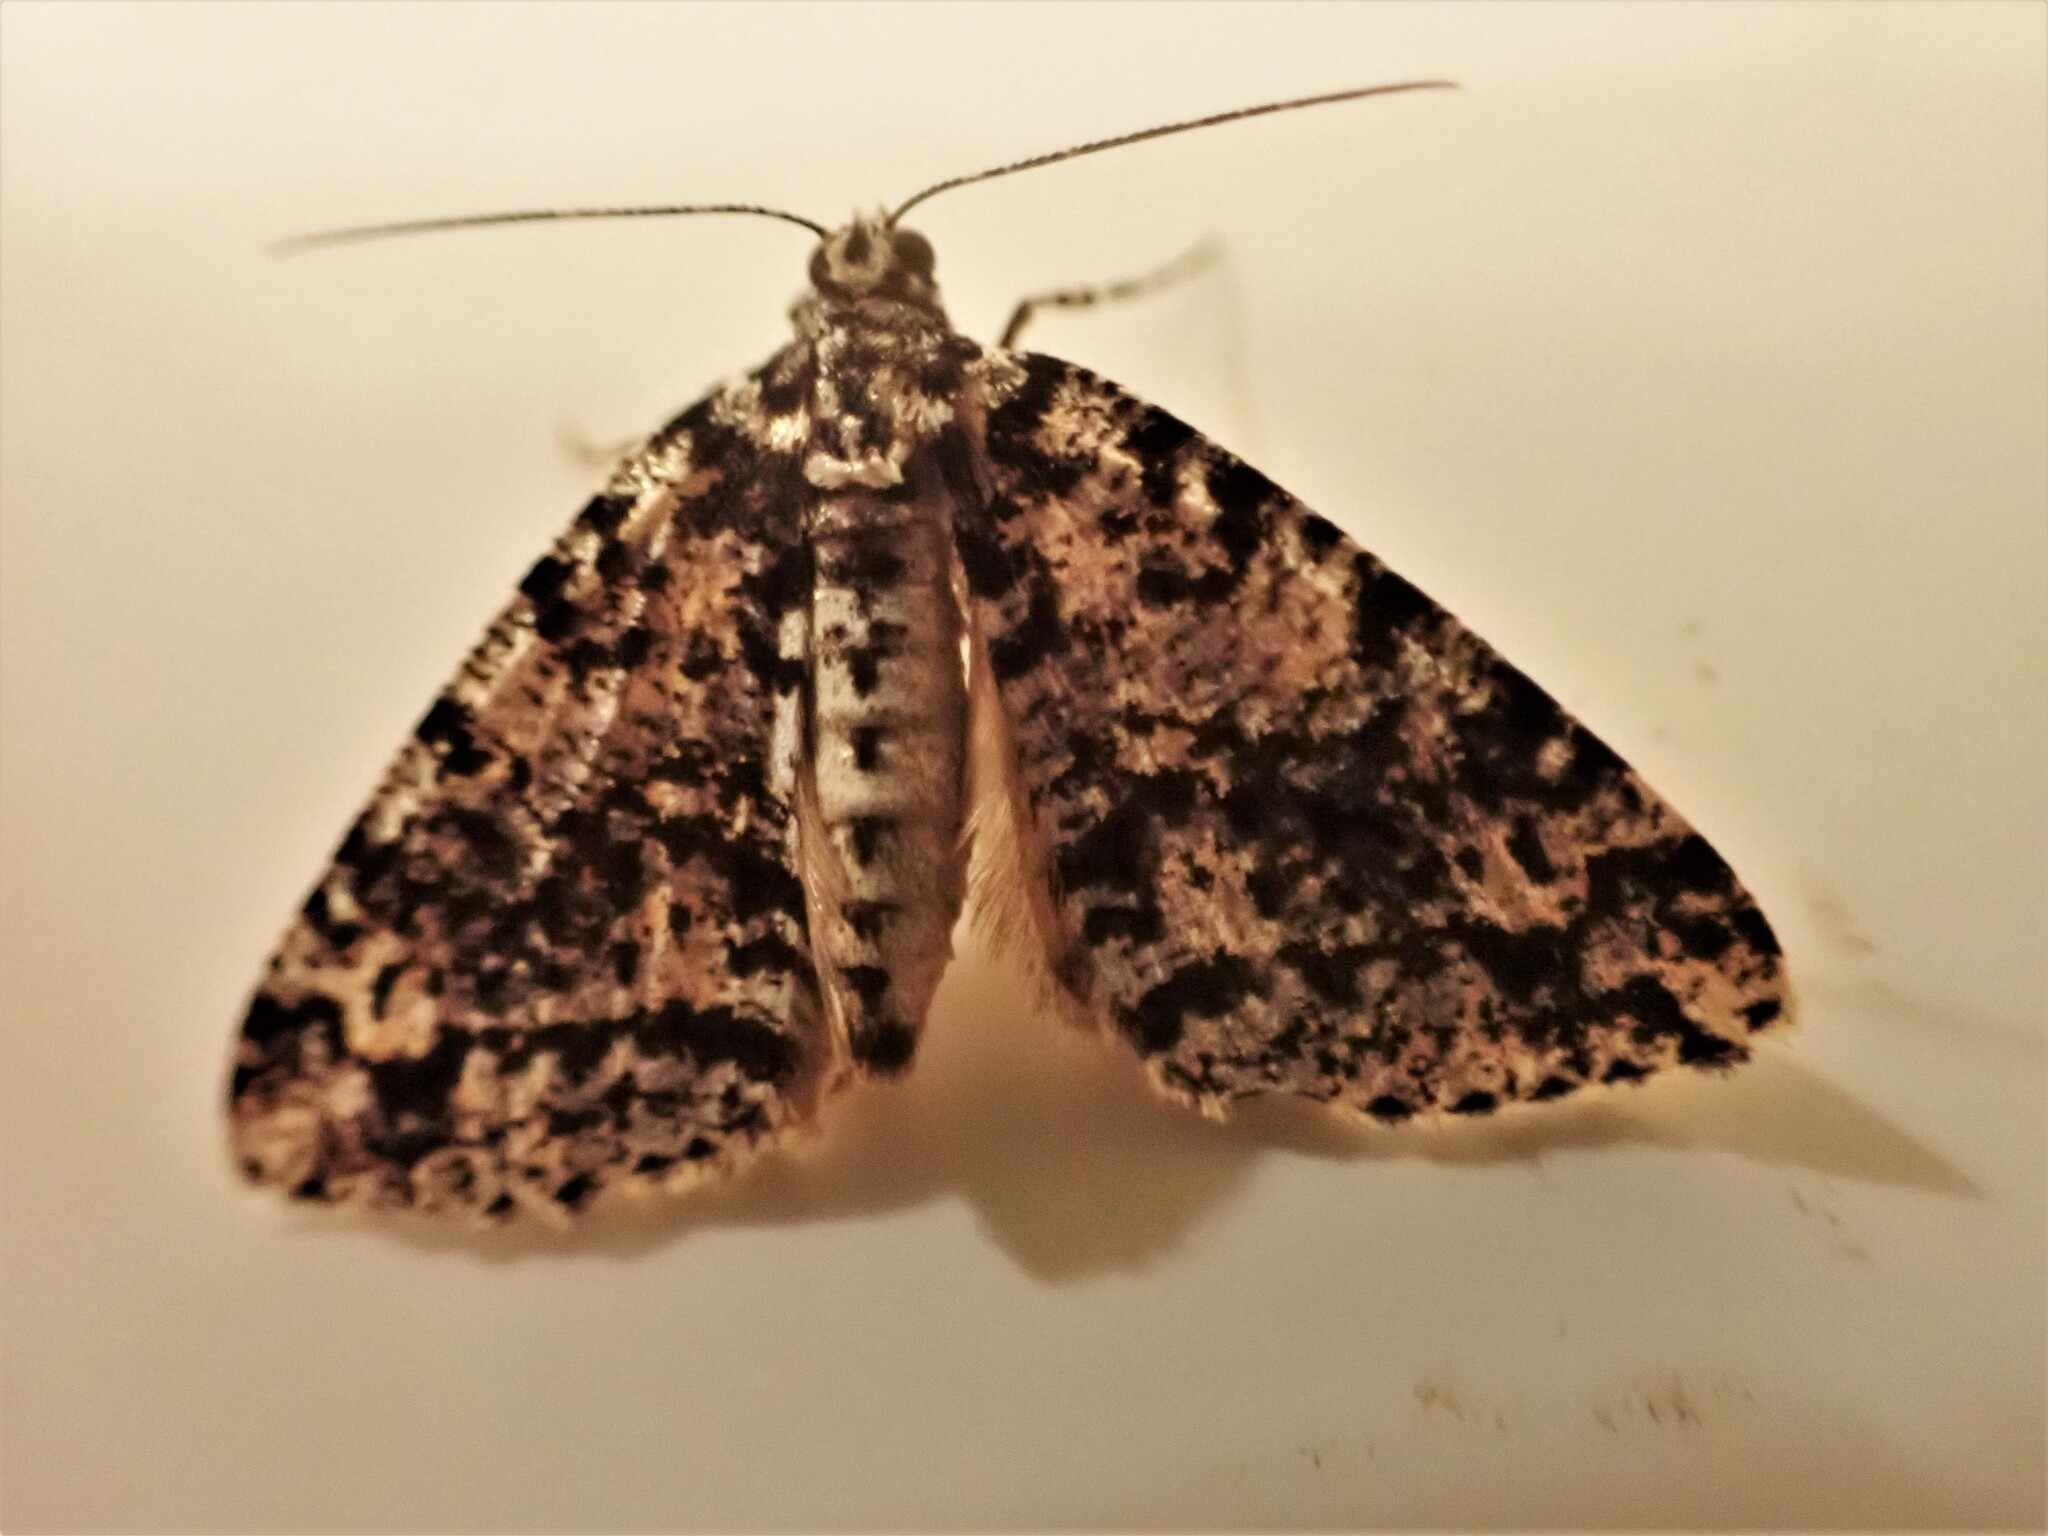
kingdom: Animalia
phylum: Arthropoda
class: Insecta
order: Lepidoptera
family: Geometridae
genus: Pseudocoremia
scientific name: Pseudocoremia monacha
